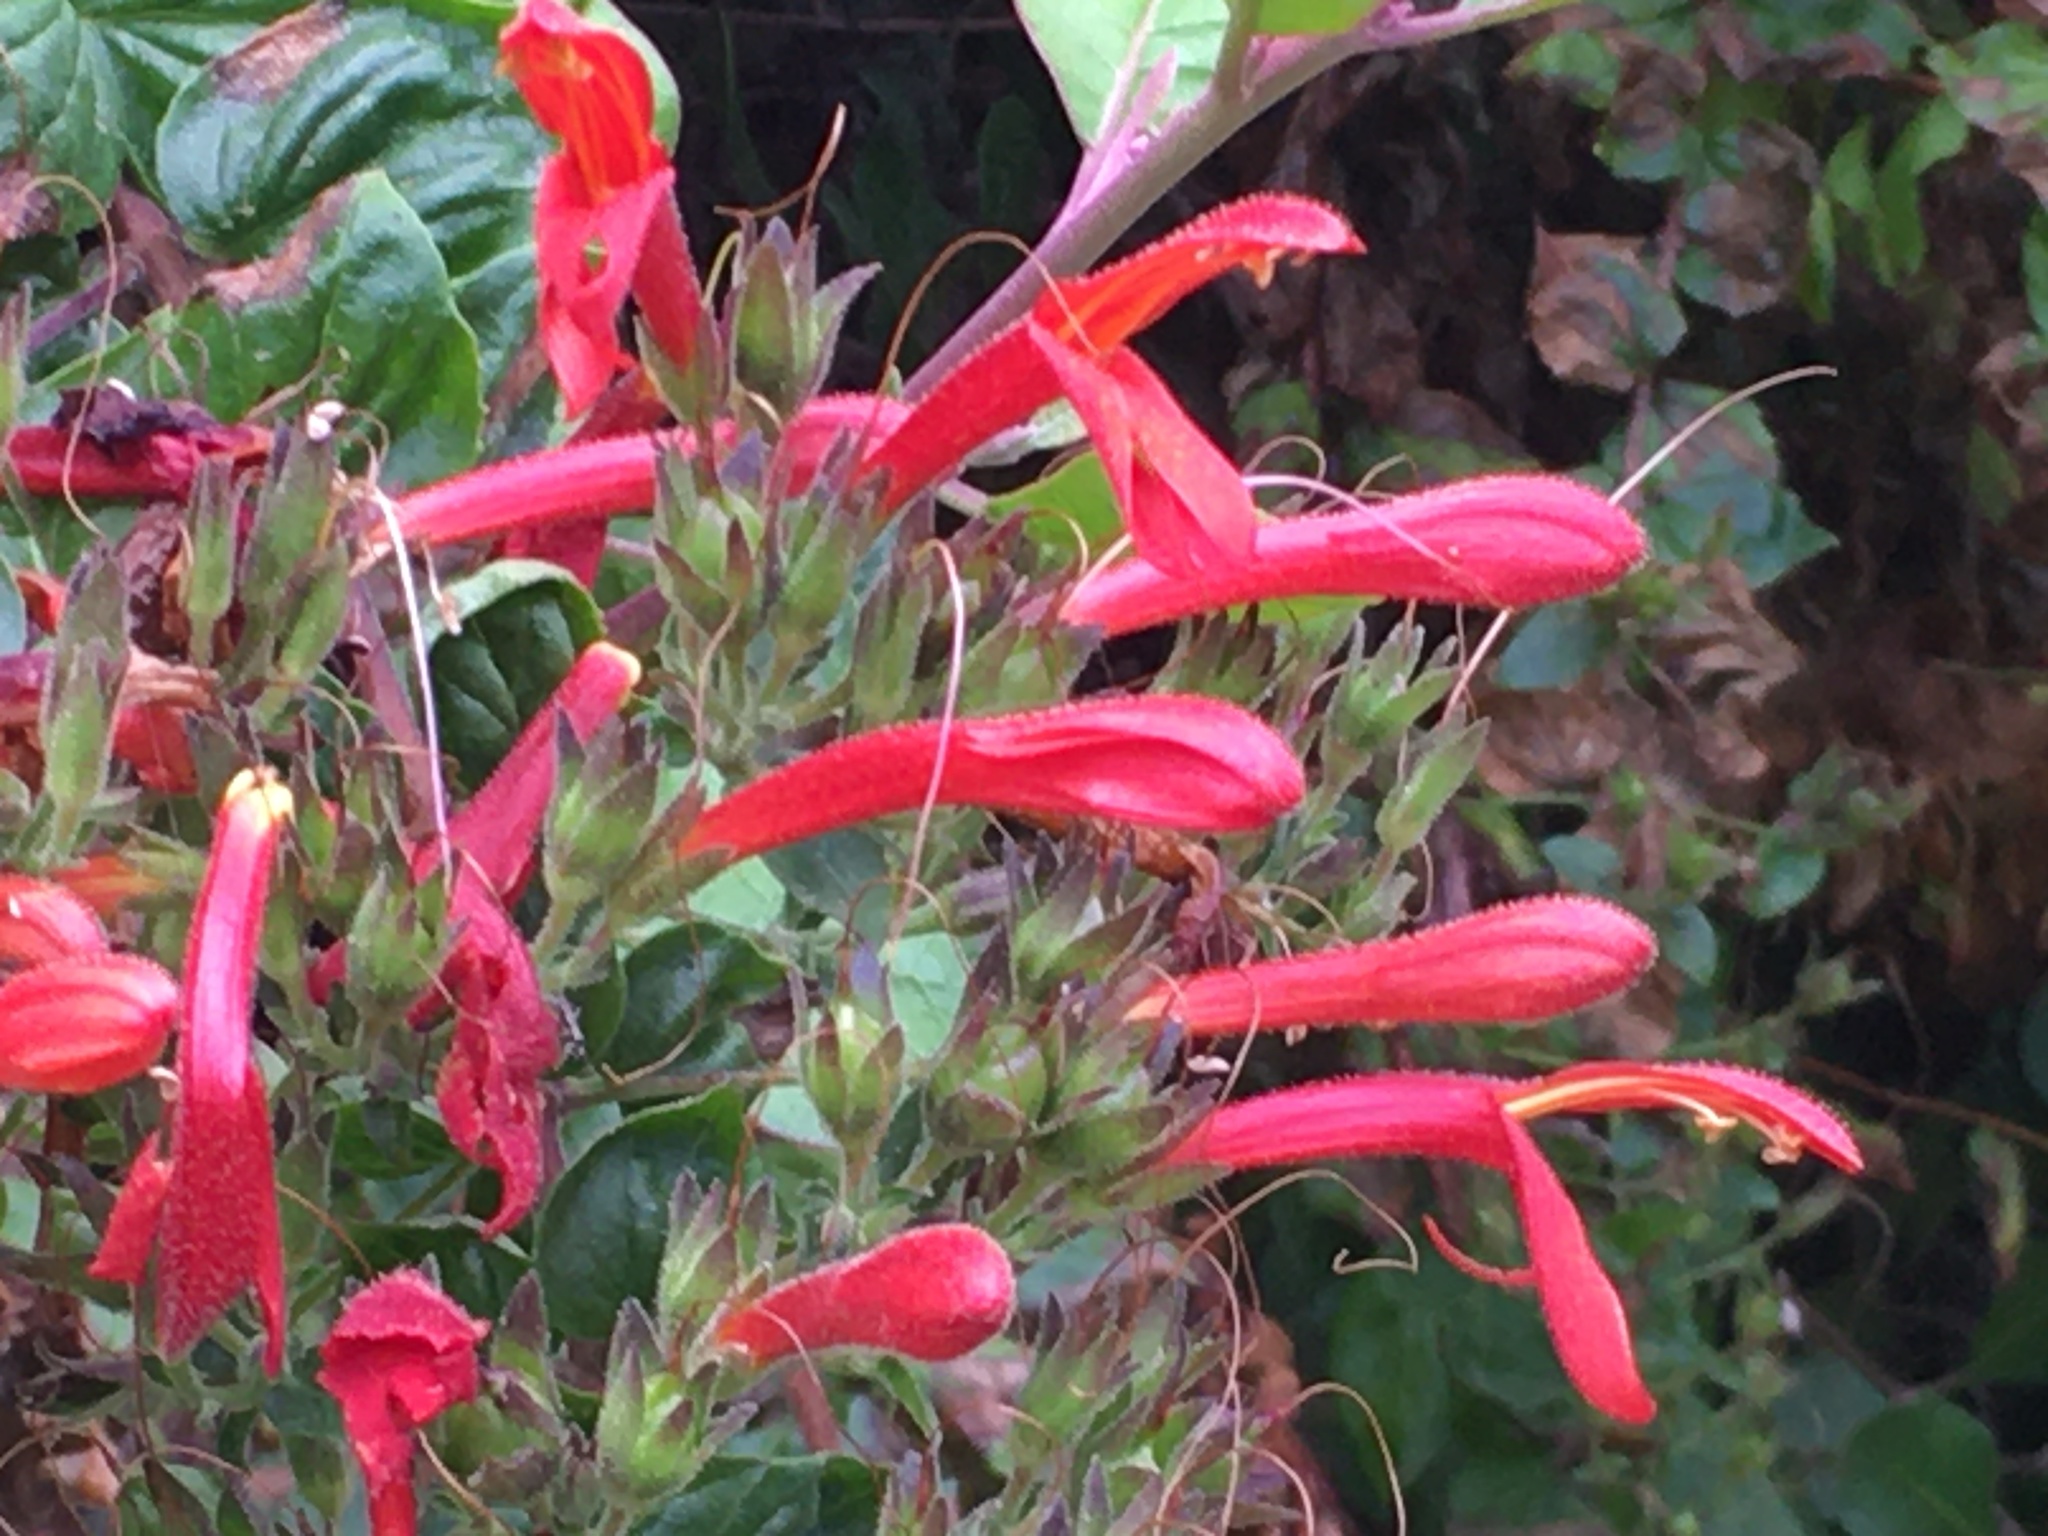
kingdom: Plantae
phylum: Tracheophyta
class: Magnoliopsida
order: Lamiales
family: Plantaginaceae
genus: Keckiella
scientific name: Keckiella cordifolia
